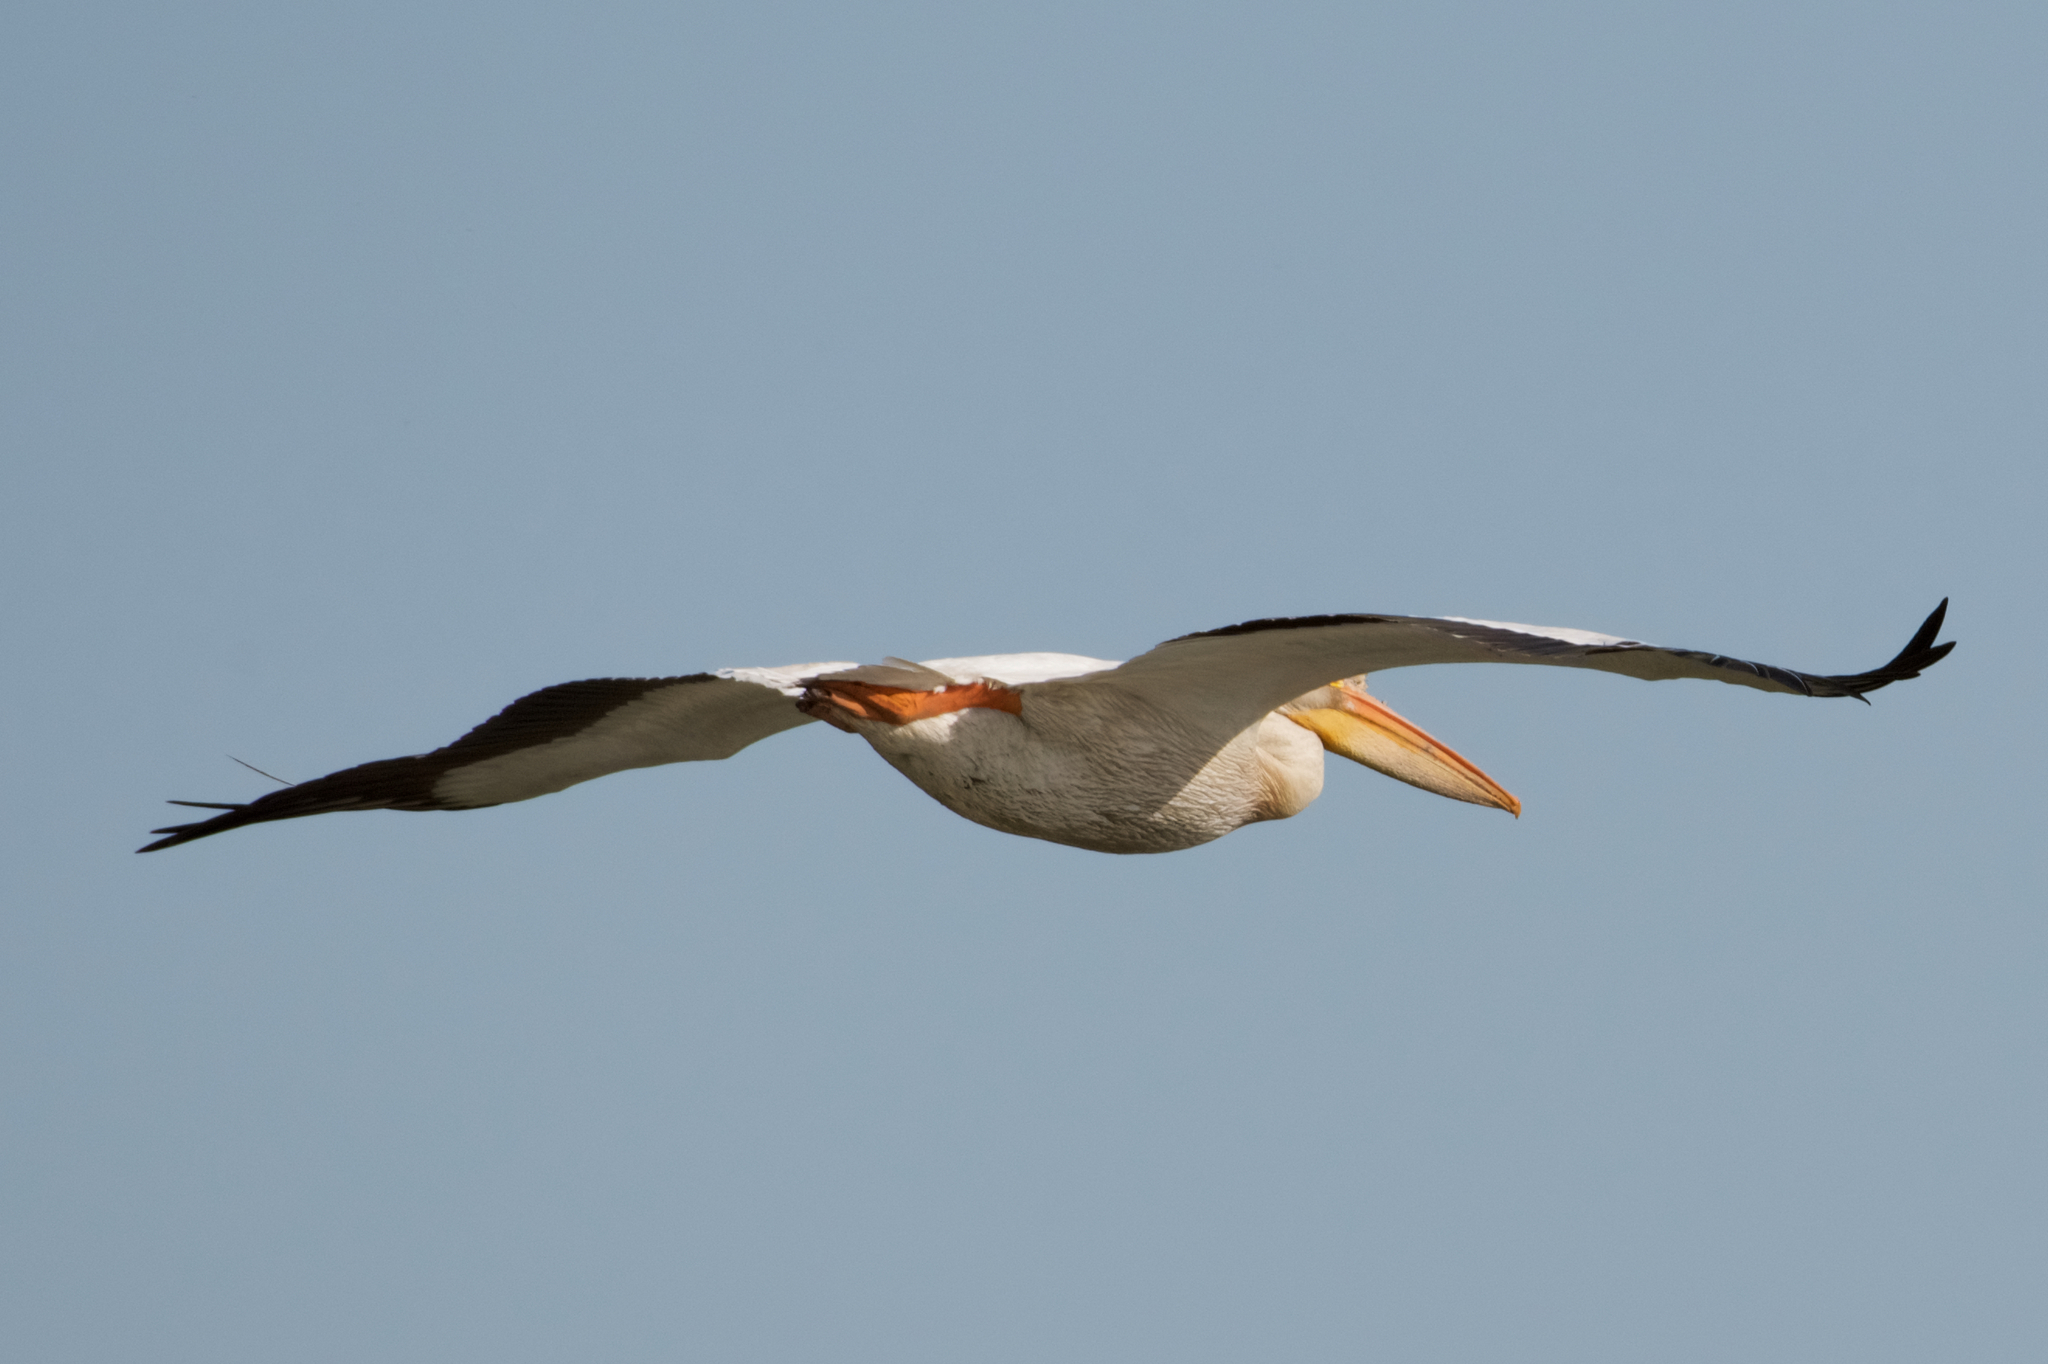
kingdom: Animalia
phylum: Chordata
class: Aves
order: Pelecaniformes
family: Pelecanidae
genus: Pelecanus
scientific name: Pelecanus erythrorhynchos
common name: American white pelican
